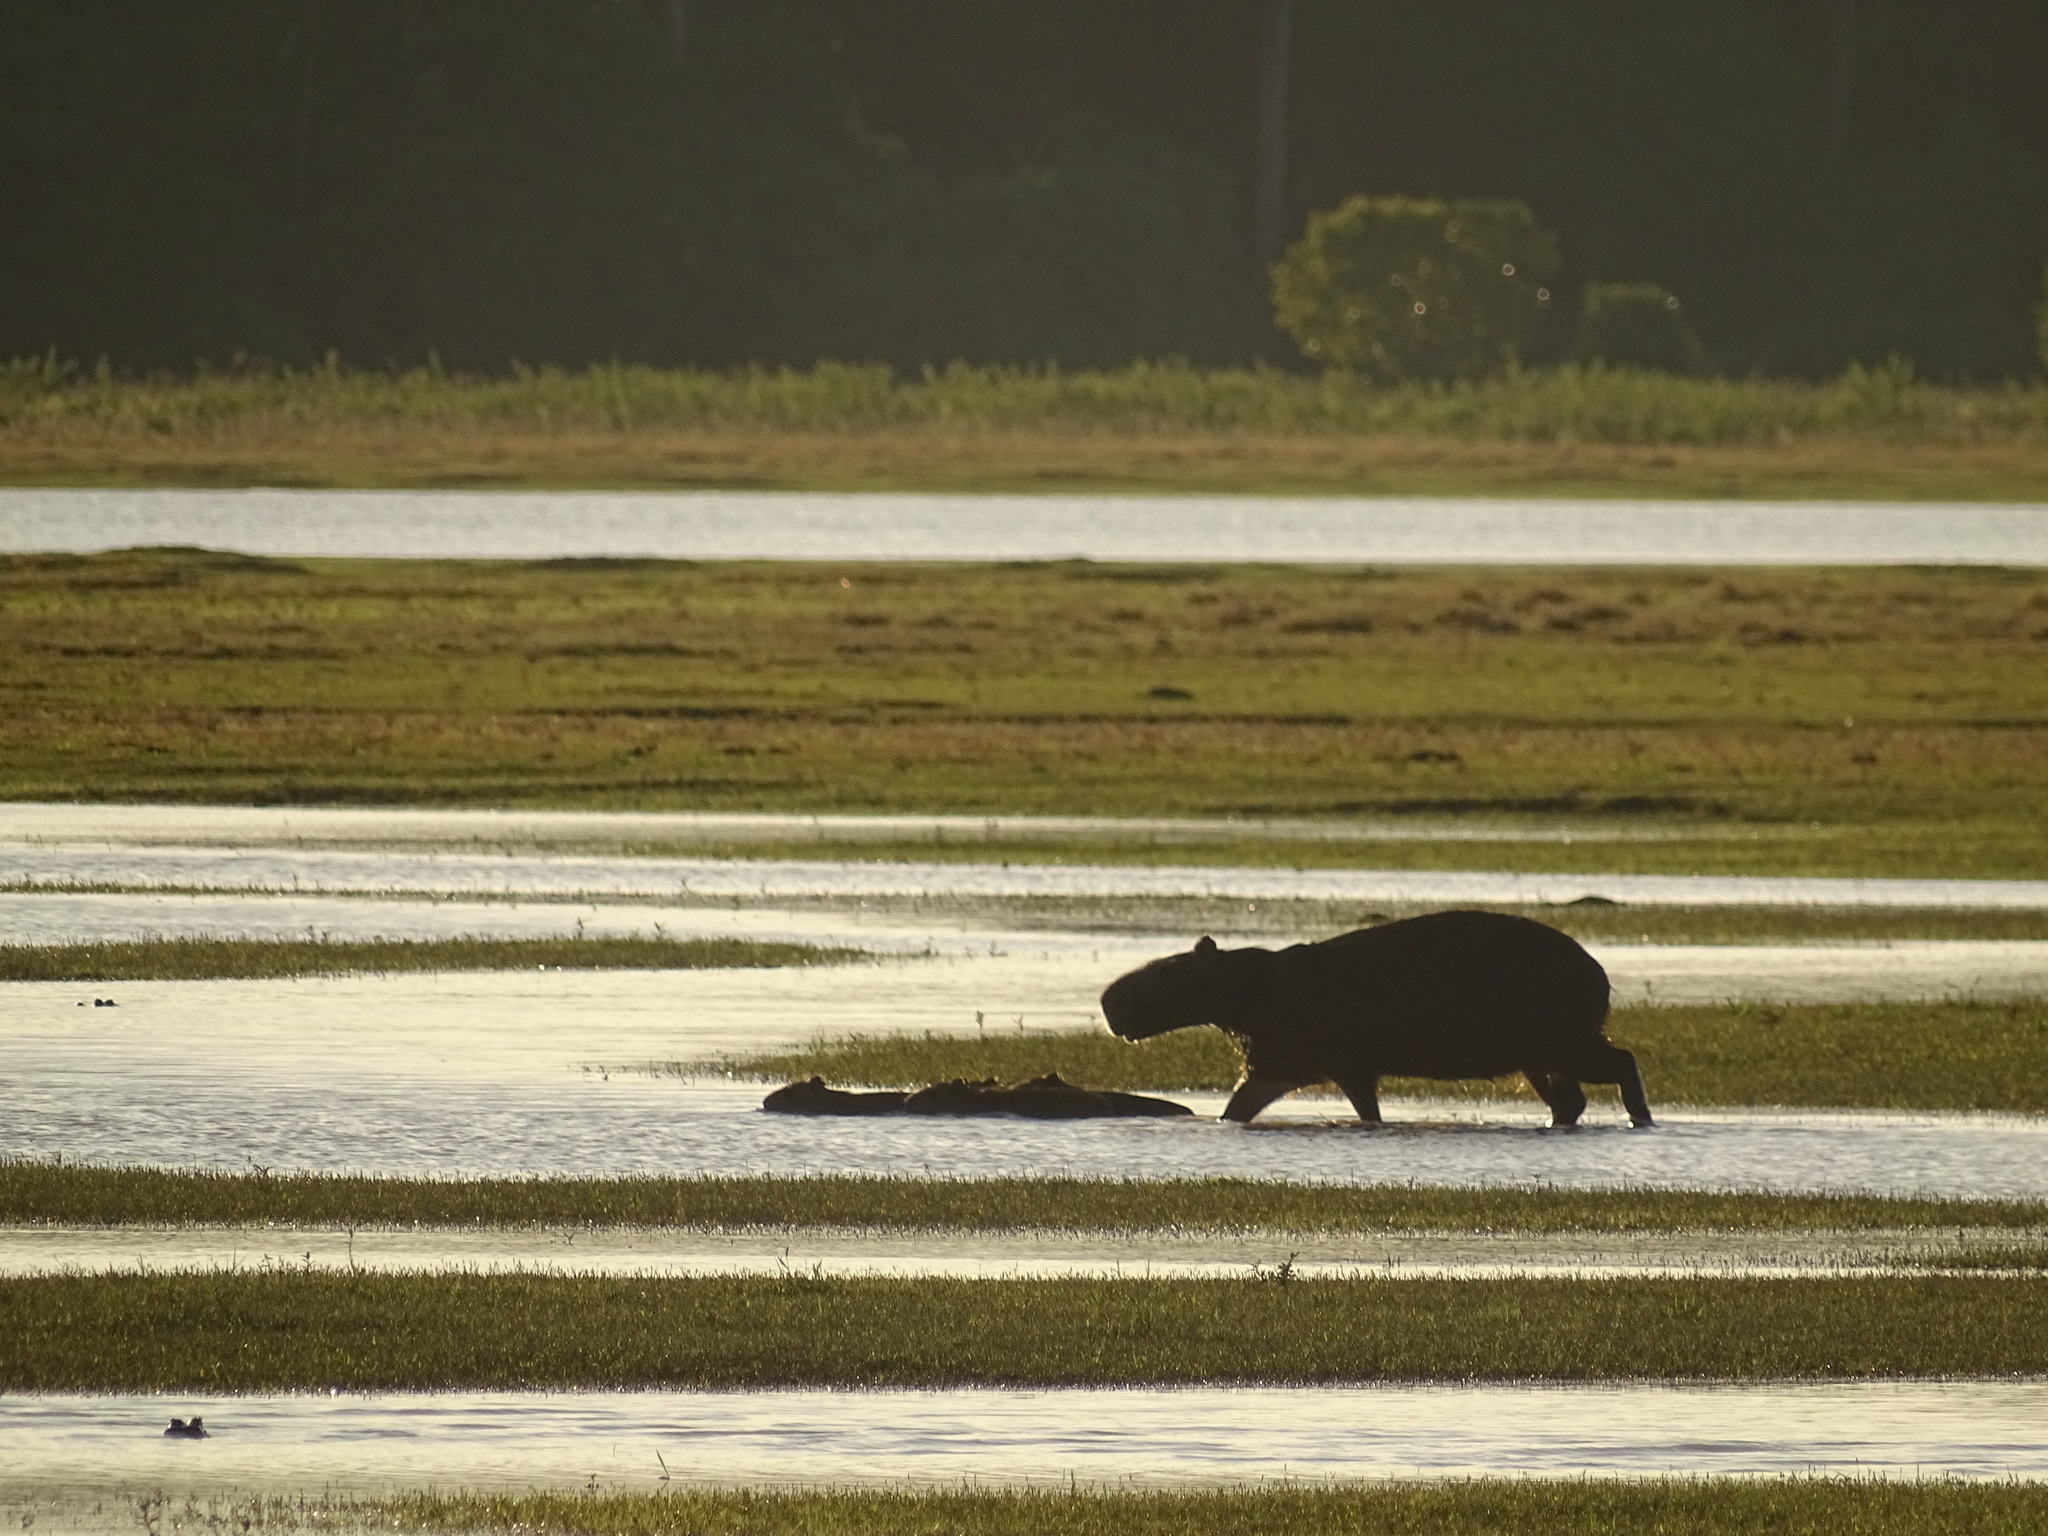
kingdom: Animalia
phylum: Chordata
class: Mammalia
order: Rodentia
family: Caviidae
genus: Hydrochoerus
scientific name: Hydrochoerus hydrochaeris
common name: Capybara
